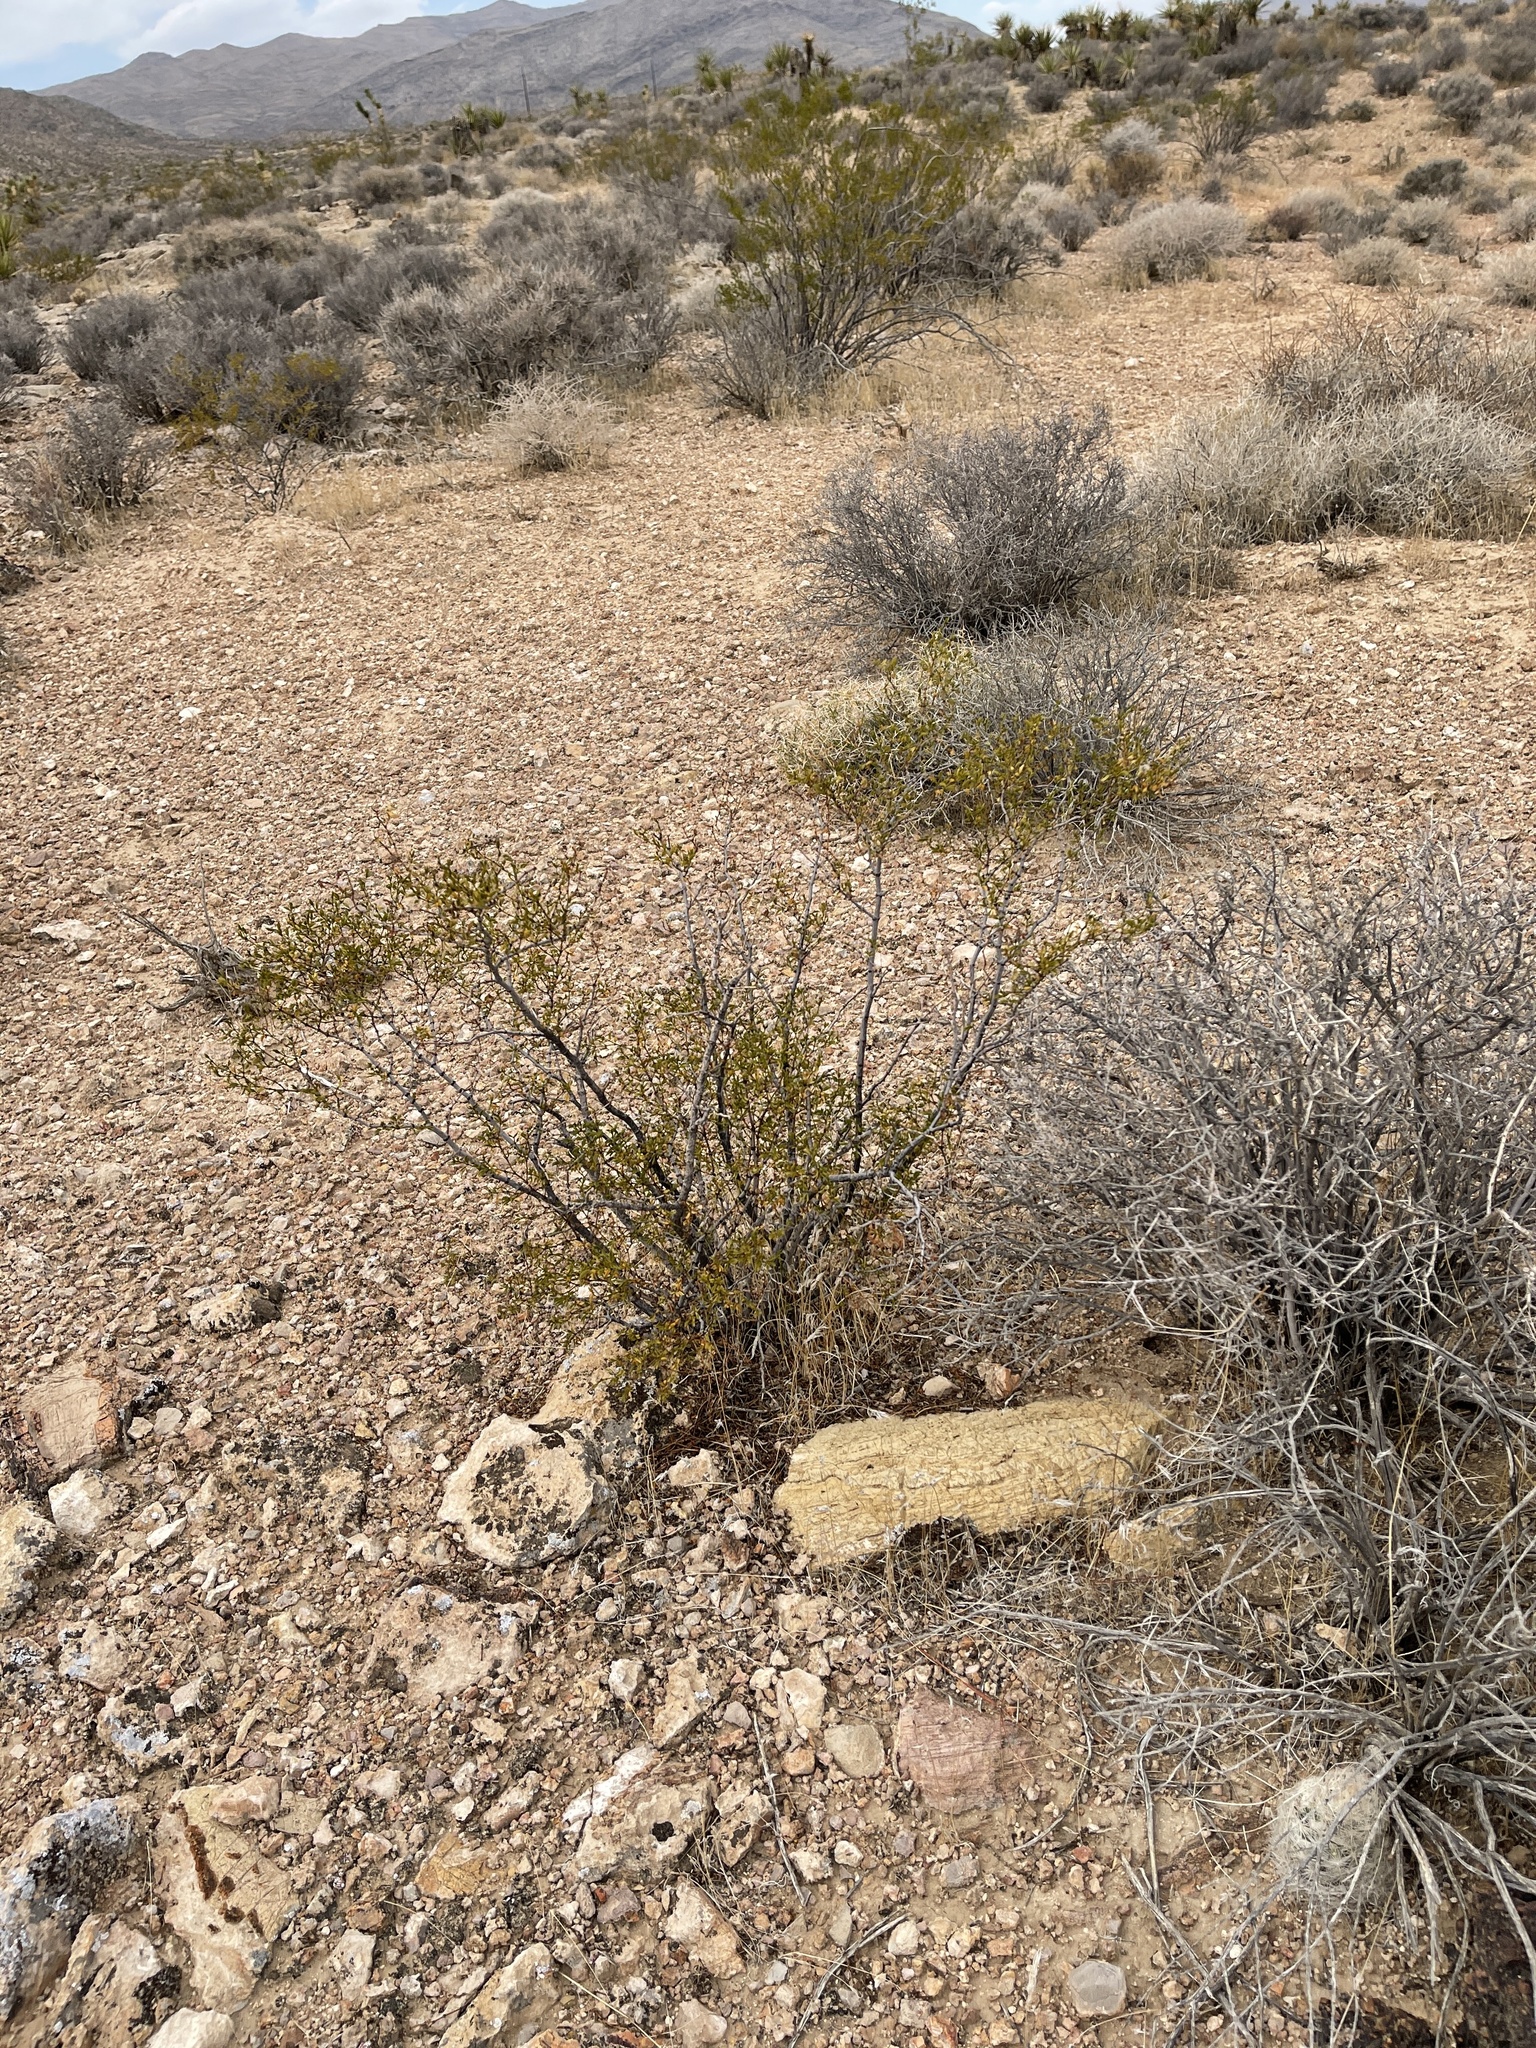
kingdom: Plantae
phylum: Tracheophyta
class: Magnoliopsida
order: Zygophyllales
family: Zygophyllaceae
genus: Larrea
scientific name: Larrea tridentata
